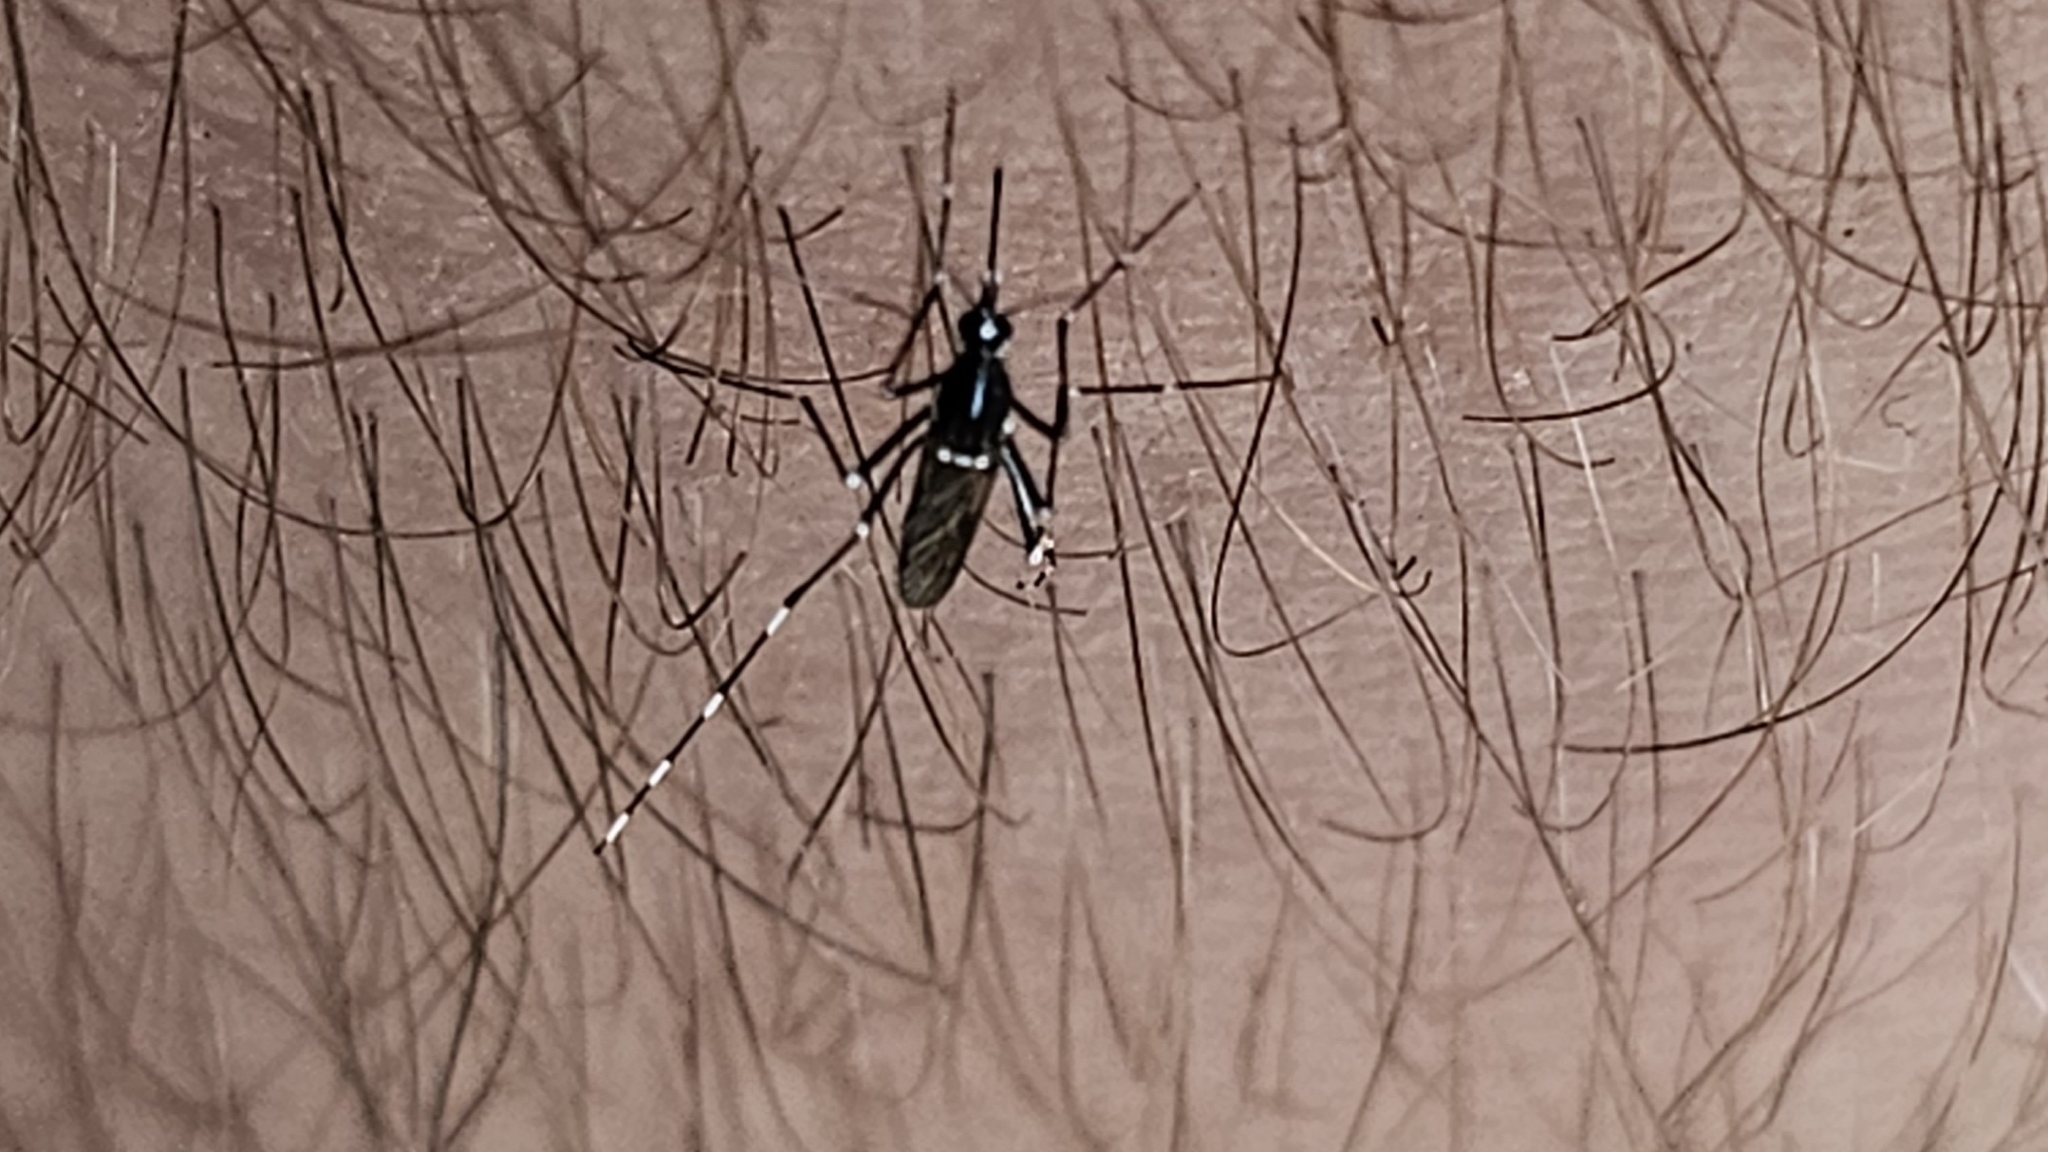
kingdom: Animalia
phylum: Arthropoda
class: Insecta
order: Diptera
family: Culicidae
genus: Aedes
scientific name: Aedes albopictus
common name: Tiger mosquito
